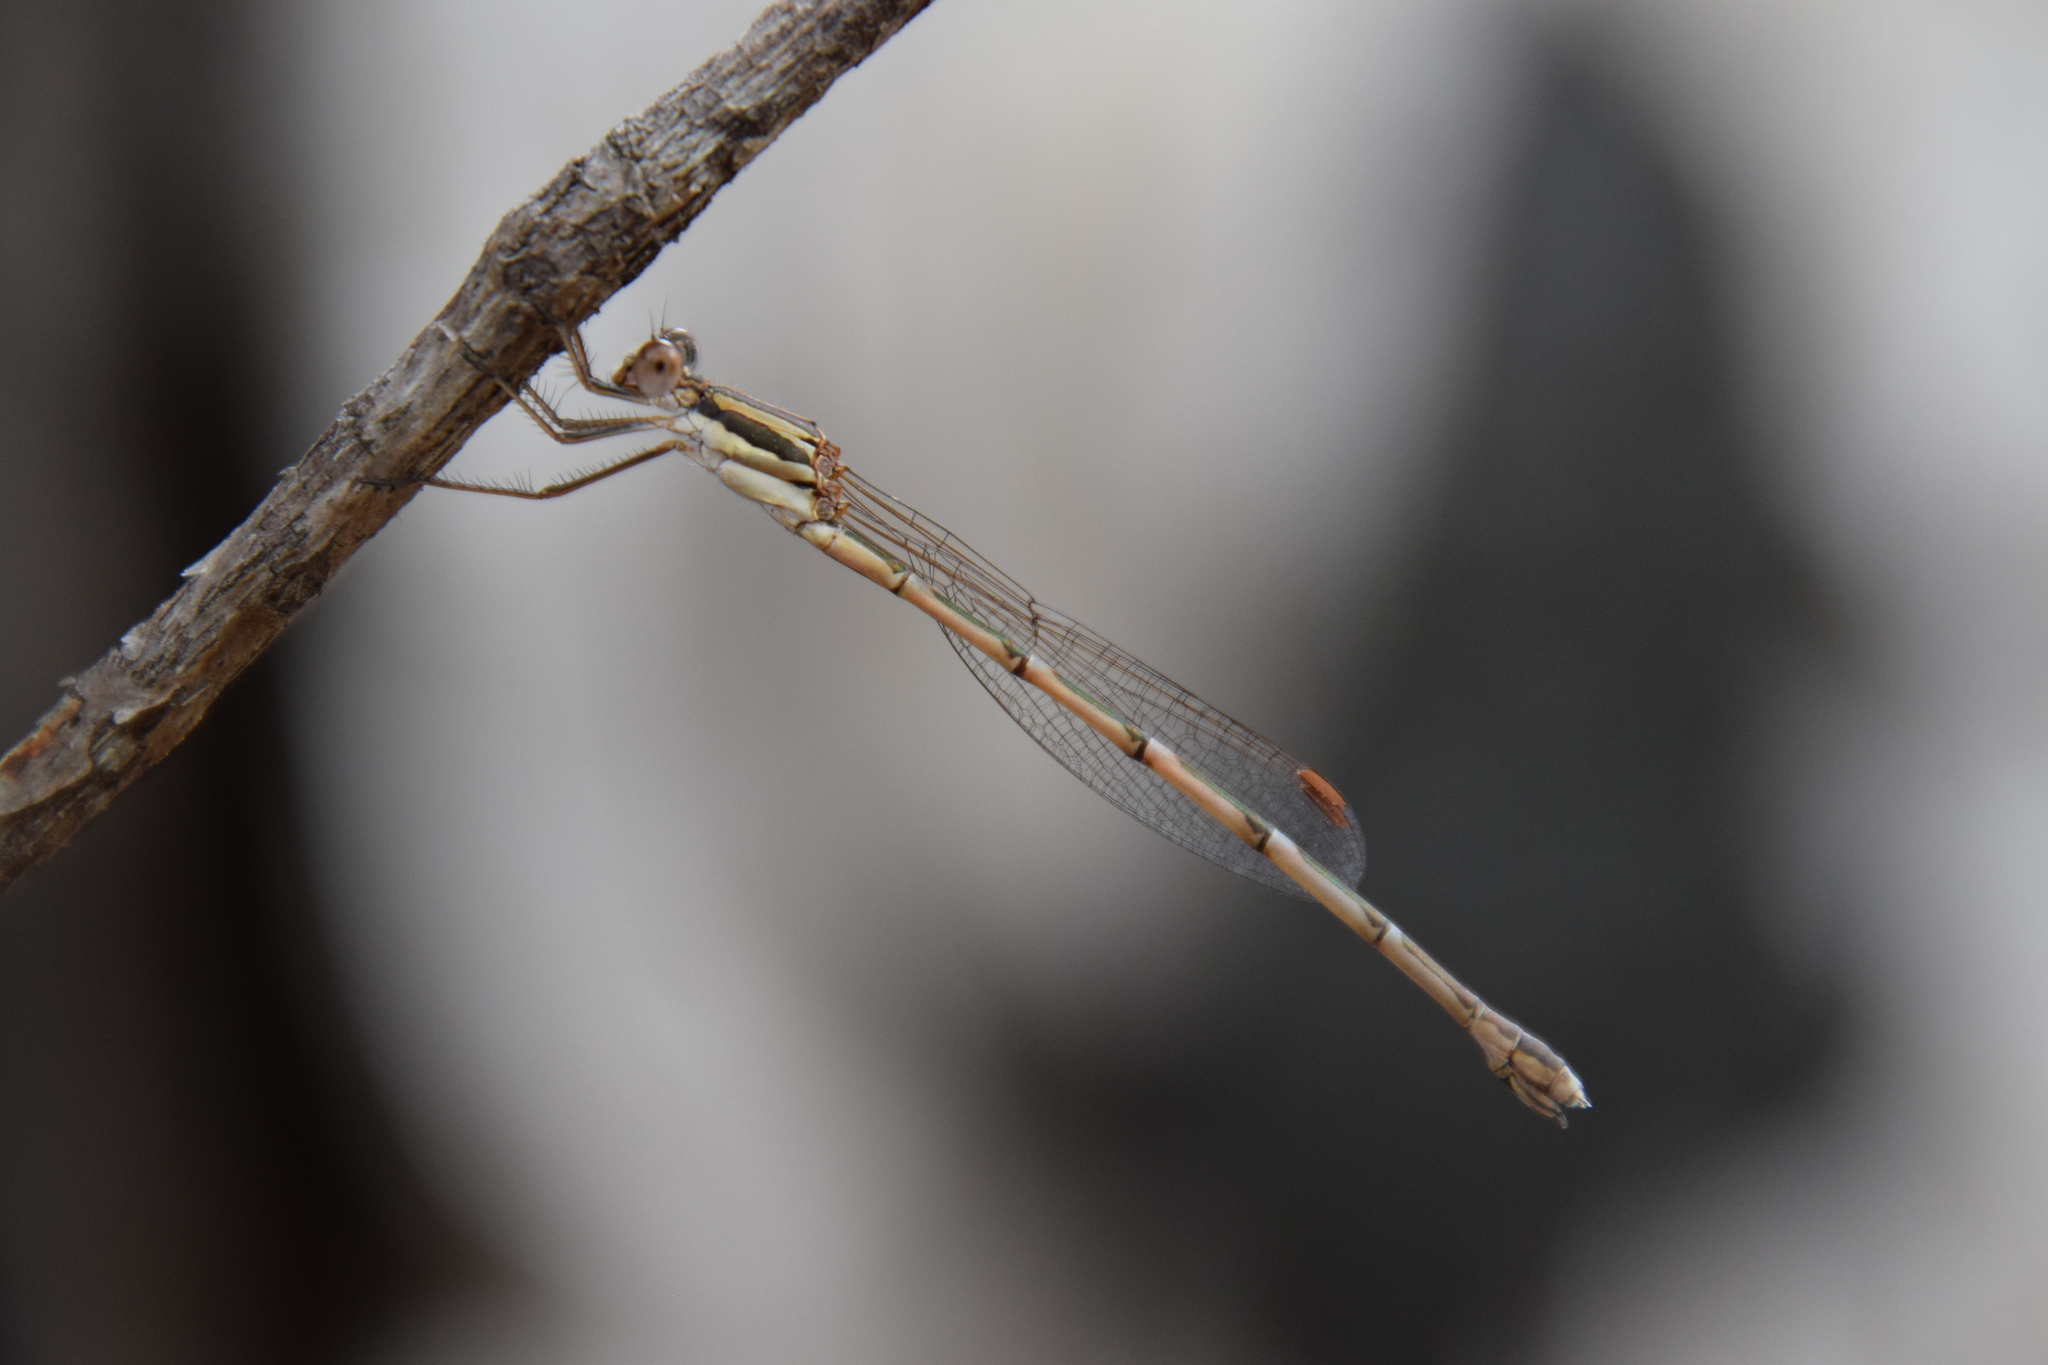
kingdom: Animalia
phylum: Arthropoda
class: Insecta
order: Odonata
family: Lestidae
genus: Austrolestes
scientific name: Austrolestes analis
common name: Slender ringtail
